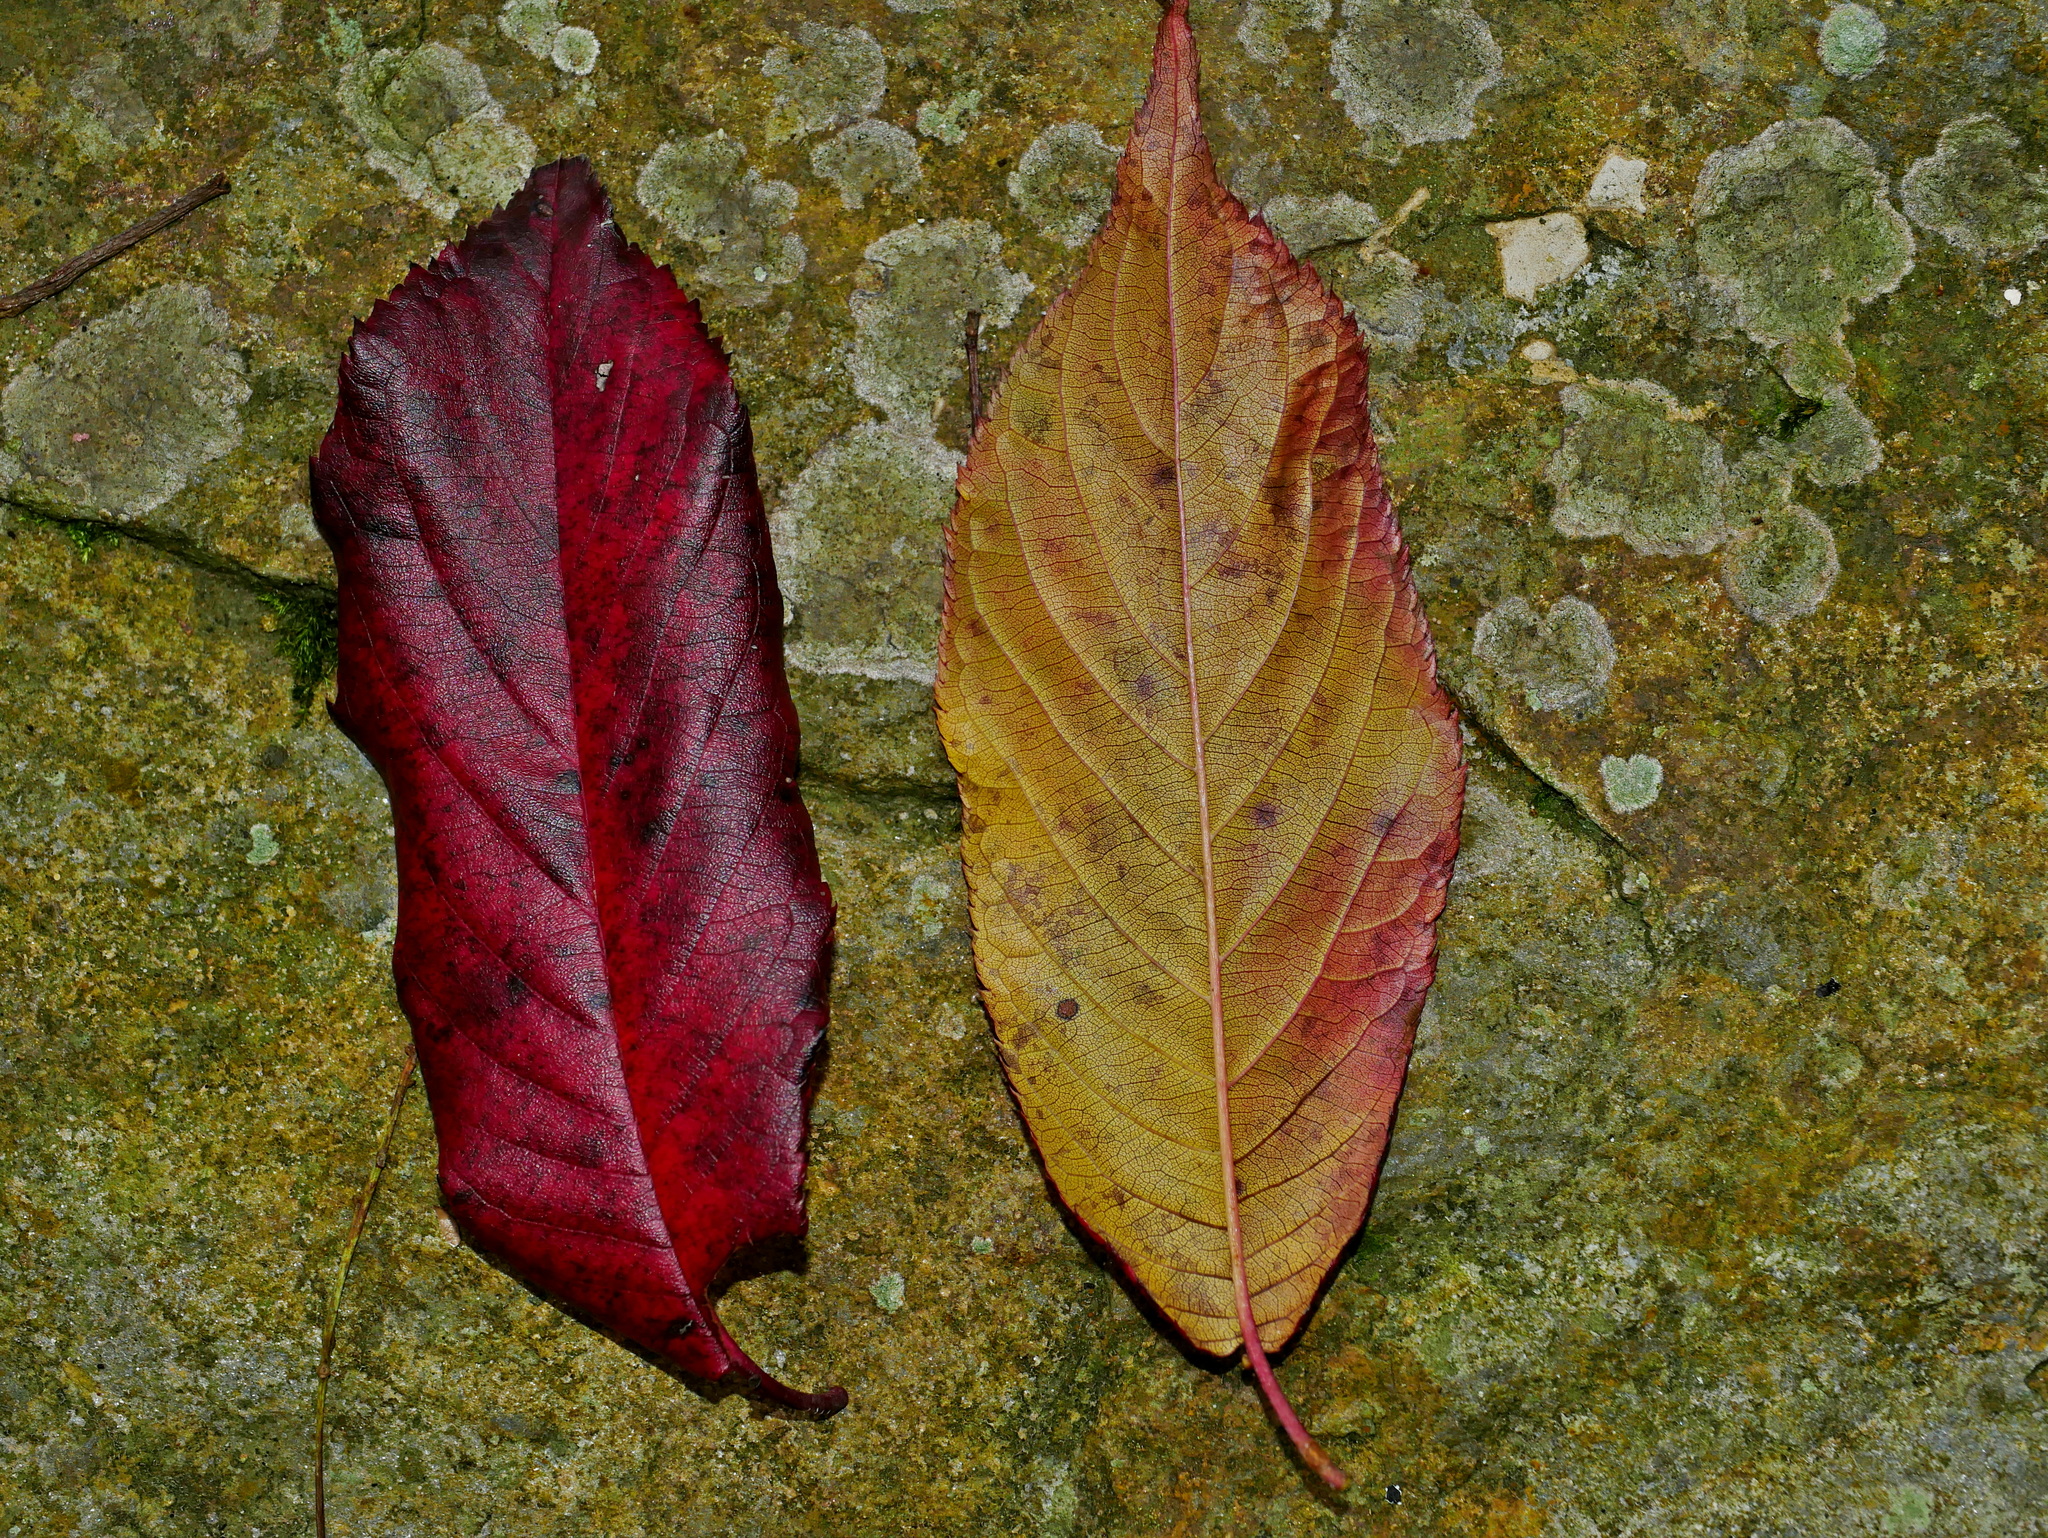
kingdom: Plantae
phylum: Tracheophyta
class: Magnoliopsida
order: Rosales
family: Rosaceae
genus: Prunus
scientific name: Prunus campanulata
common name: Taiwan flowering cherry
